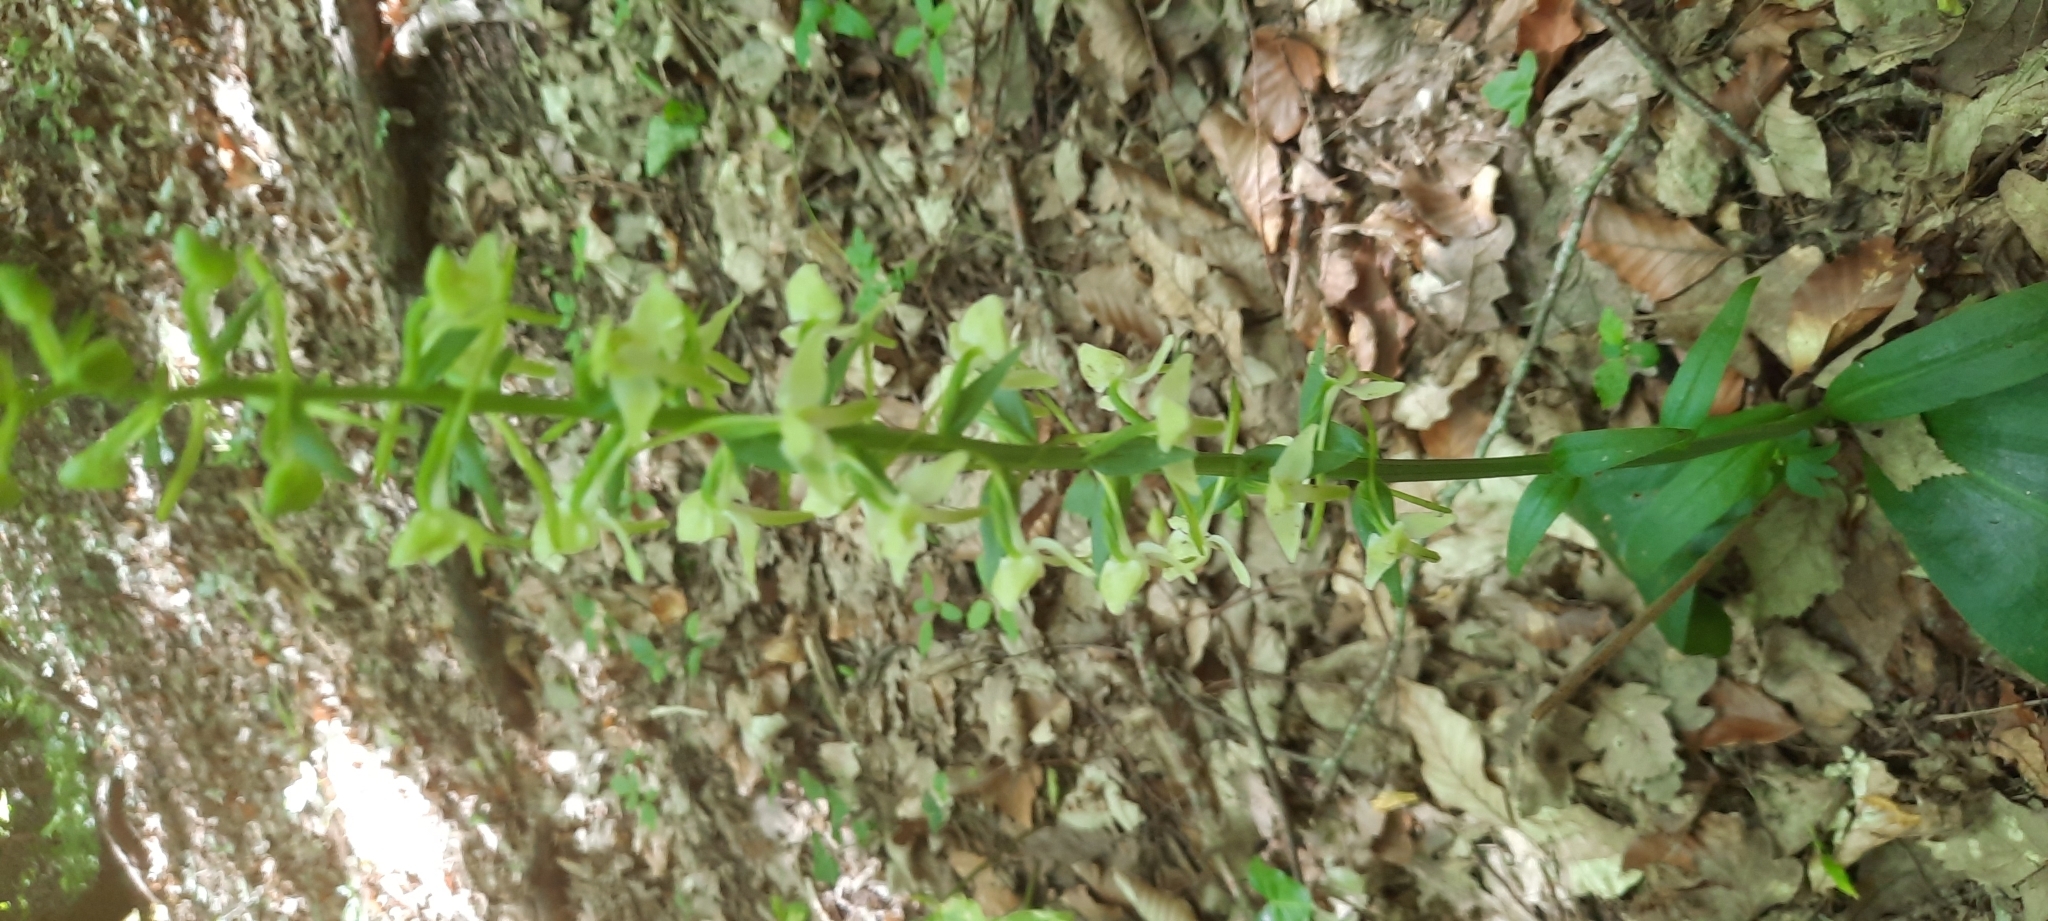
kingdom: Plantae
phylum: Tracheophyta
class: Liliopsida
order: Asparagales
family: Orchidaceae
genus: Platanthera
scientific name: Platanthera chlorantha
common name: Greater butterfly-orchid
